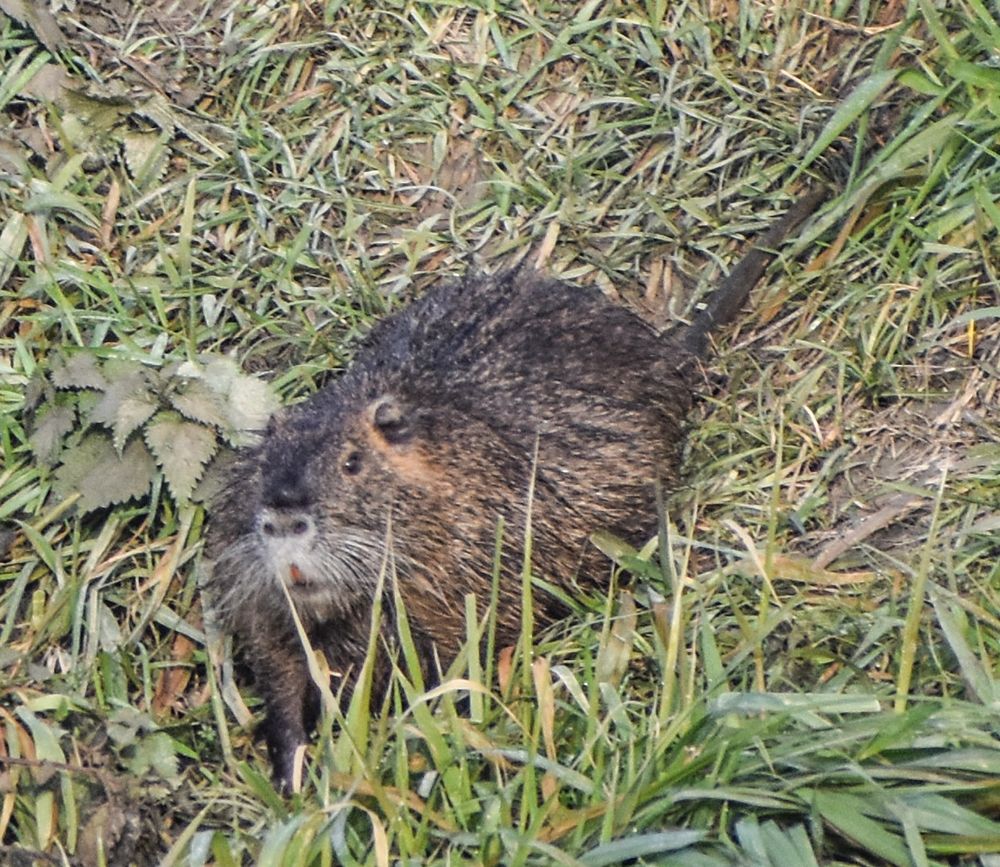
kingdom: Animalia
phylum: Chordata
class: Mammalia
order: Rodentia
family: Myocastoridae
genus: Myocastor
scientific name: Myocastor coypus
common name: Coypu
